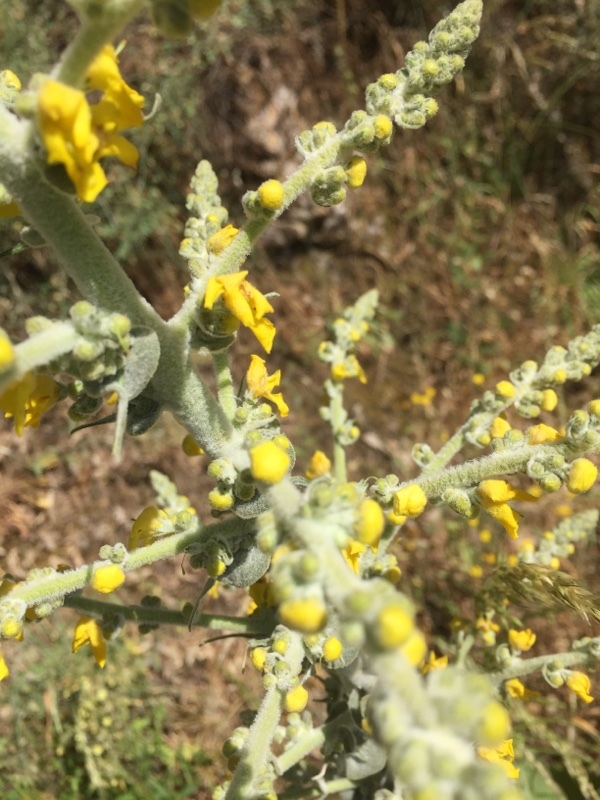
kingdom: Plantae
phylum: Tracheophyta
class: Magnoliopsida
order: Lamiales
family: Scrophulariaceae
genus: Verbascum
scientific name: Verbascum pulverulentum
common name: Broad-leaf mullein
